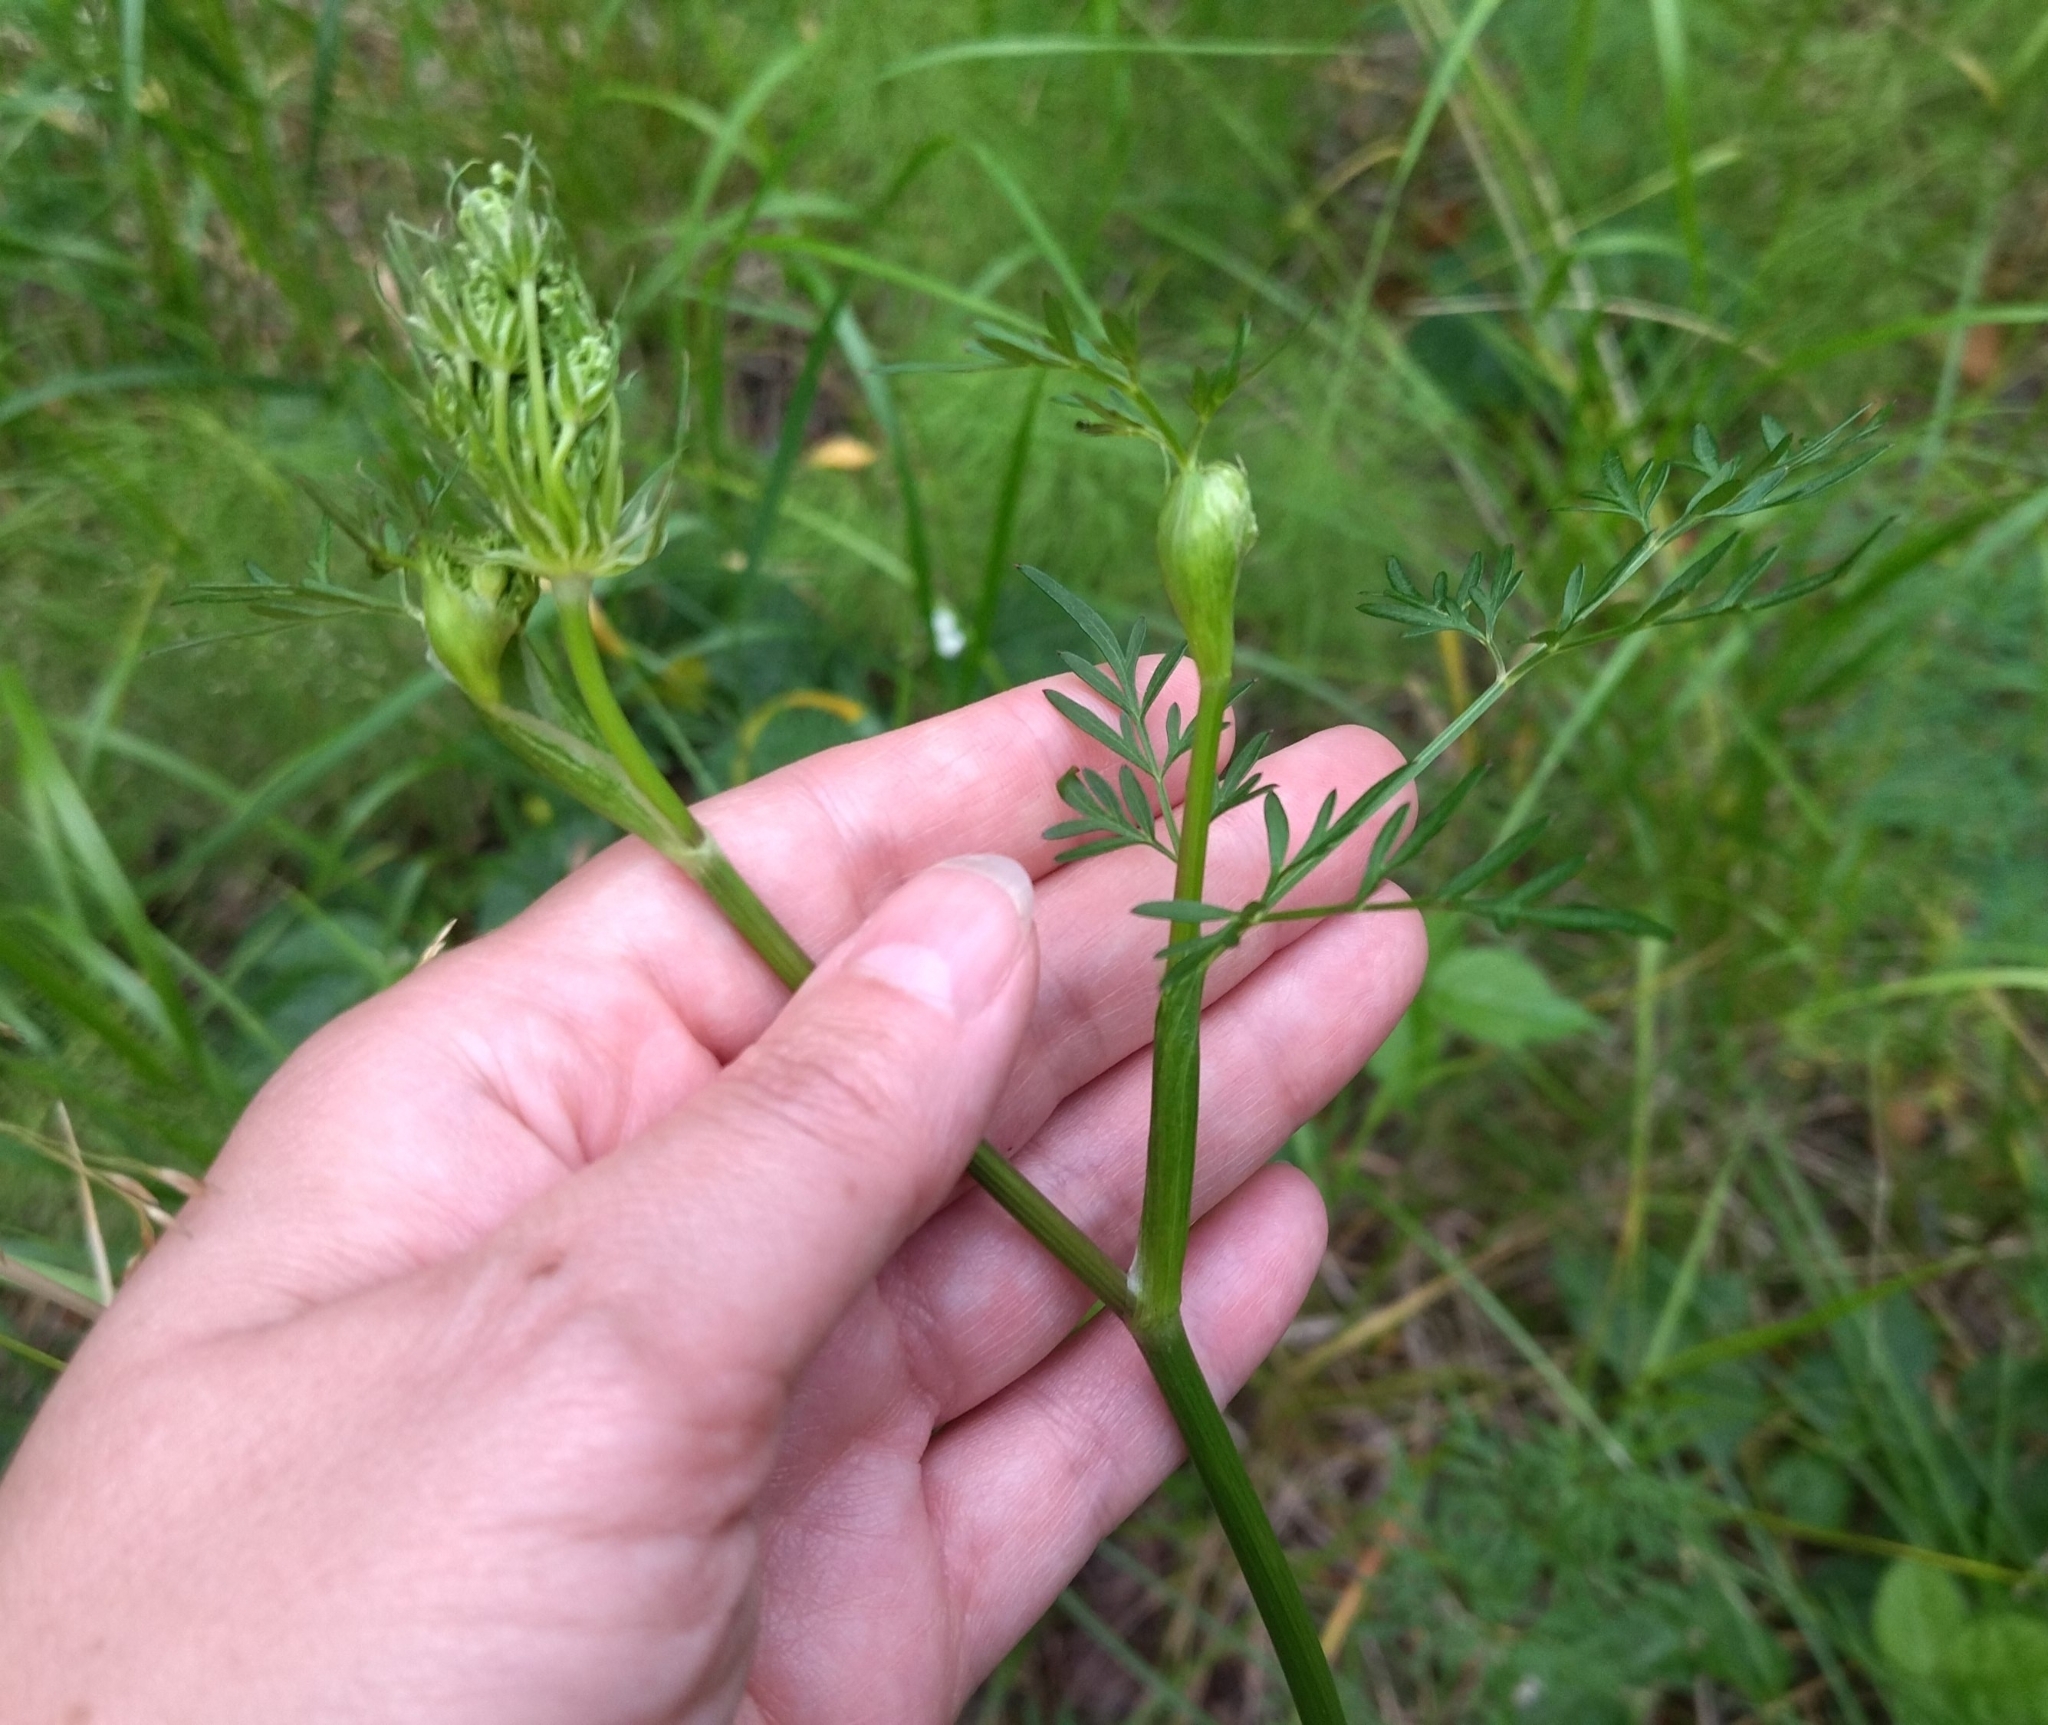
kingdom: Plantae
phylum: Tracheophyta
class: Magnoliopsida
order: Apiales
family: Apiaceae
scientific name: Apiaceae
